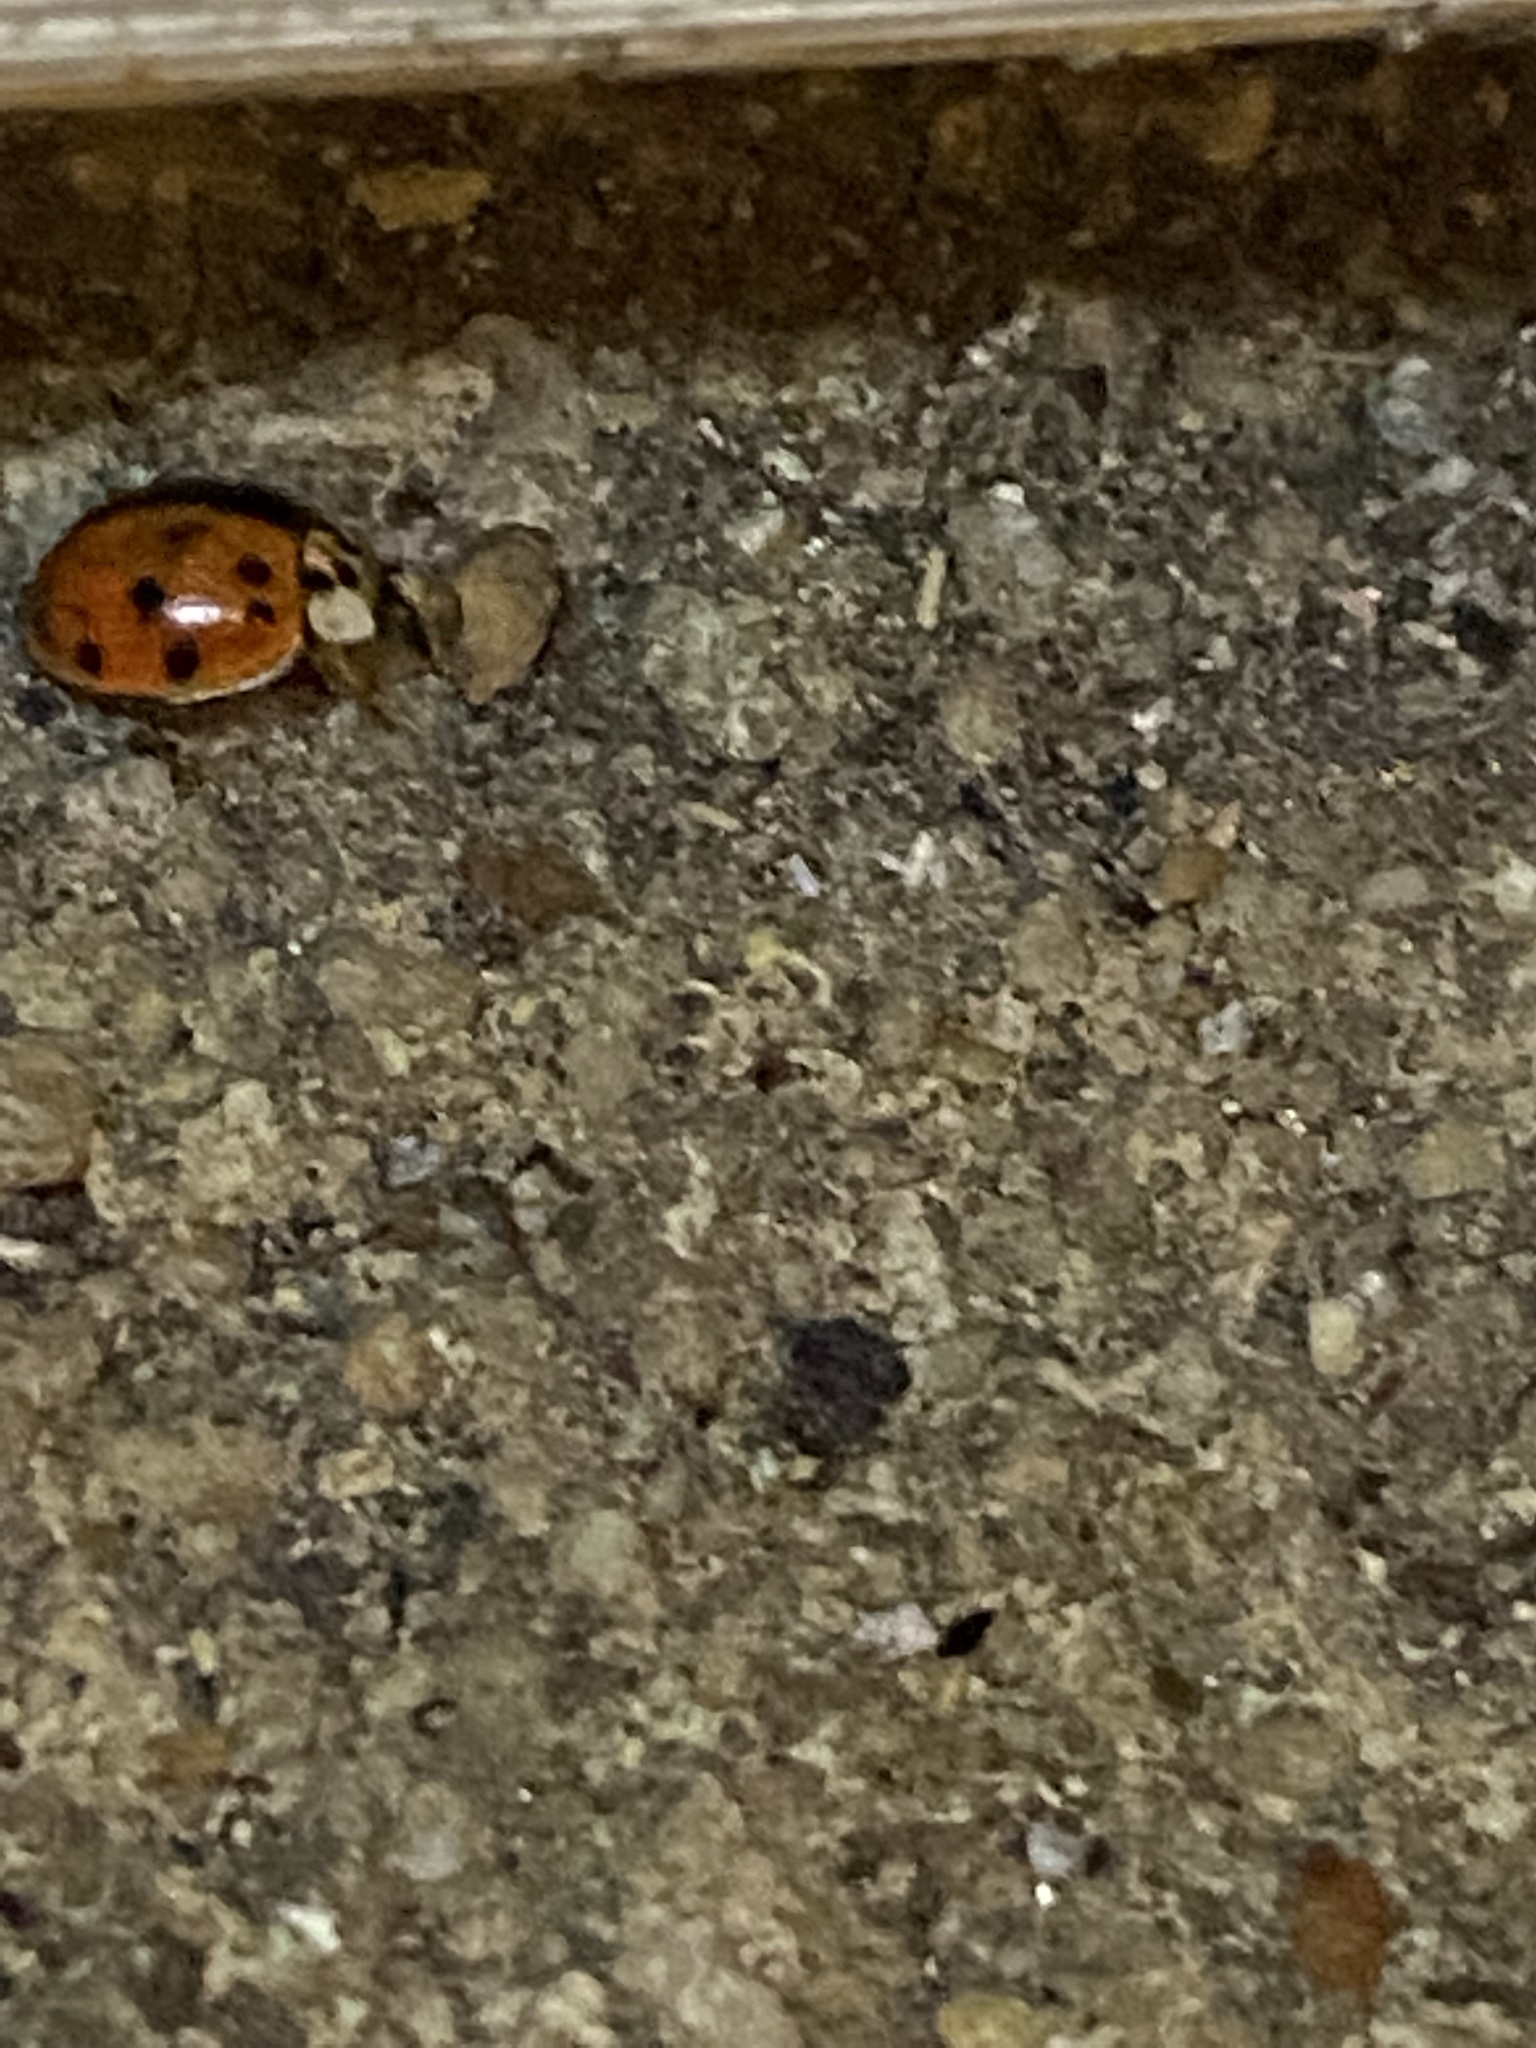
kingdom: Animalia
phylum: Arthropoda
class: Insecta
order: Coleoptera
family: Coccinellidae
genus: Harmonia
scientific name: Harmonia axyridis
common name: Harlequin ladybird
